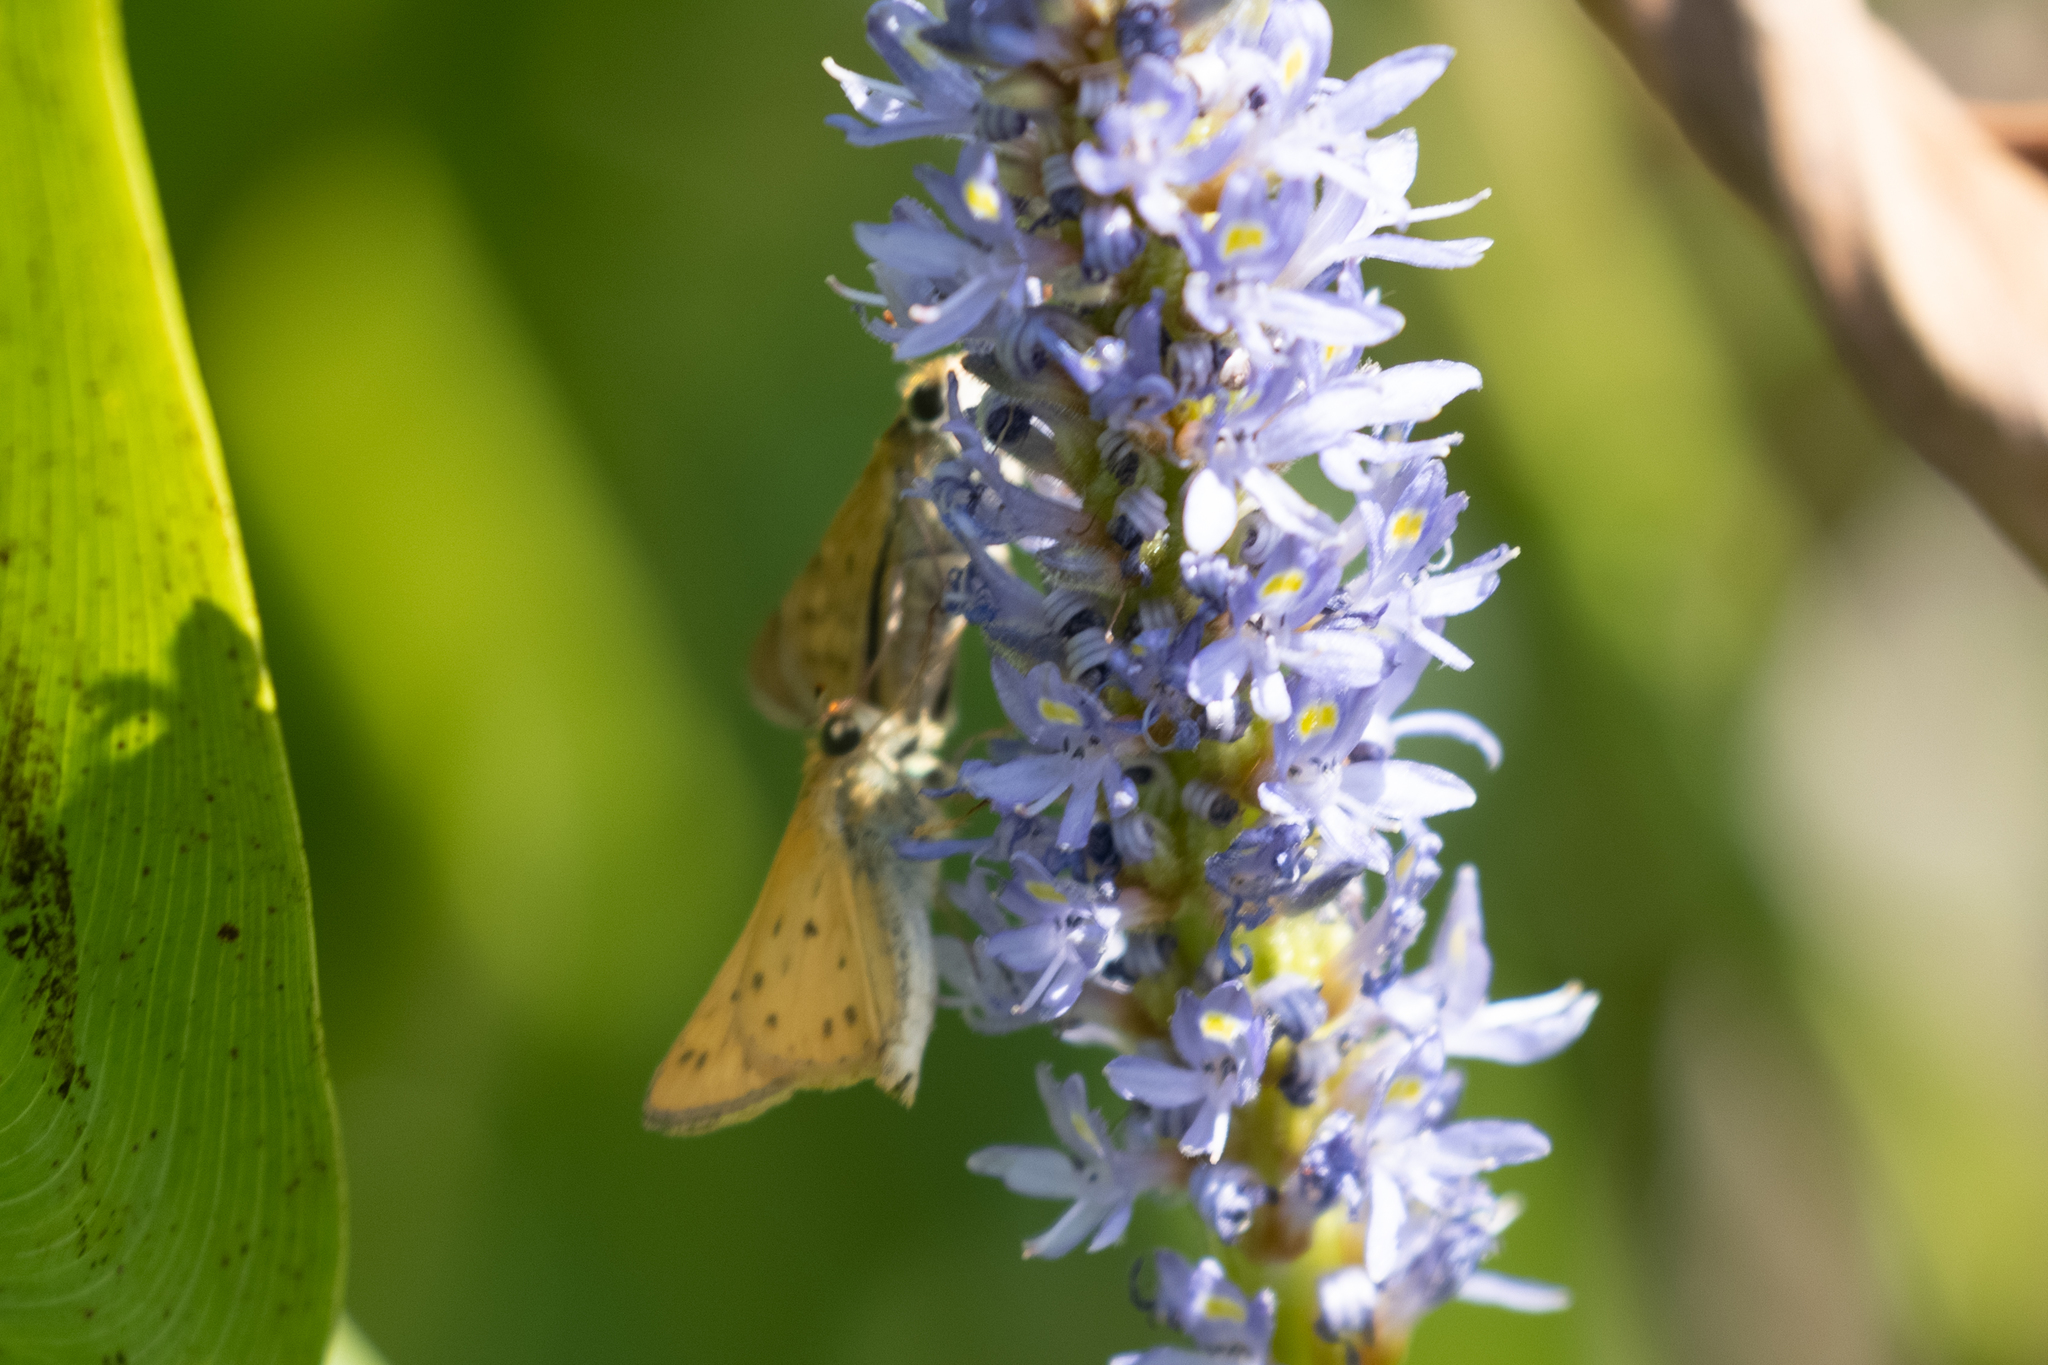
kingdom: Animalia
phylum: Arthropoda
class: Insecta
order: Lepidoptera
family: Hesperiidae
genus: Hylephila
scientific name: Hylephila phyleus
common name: Fiery skipper
